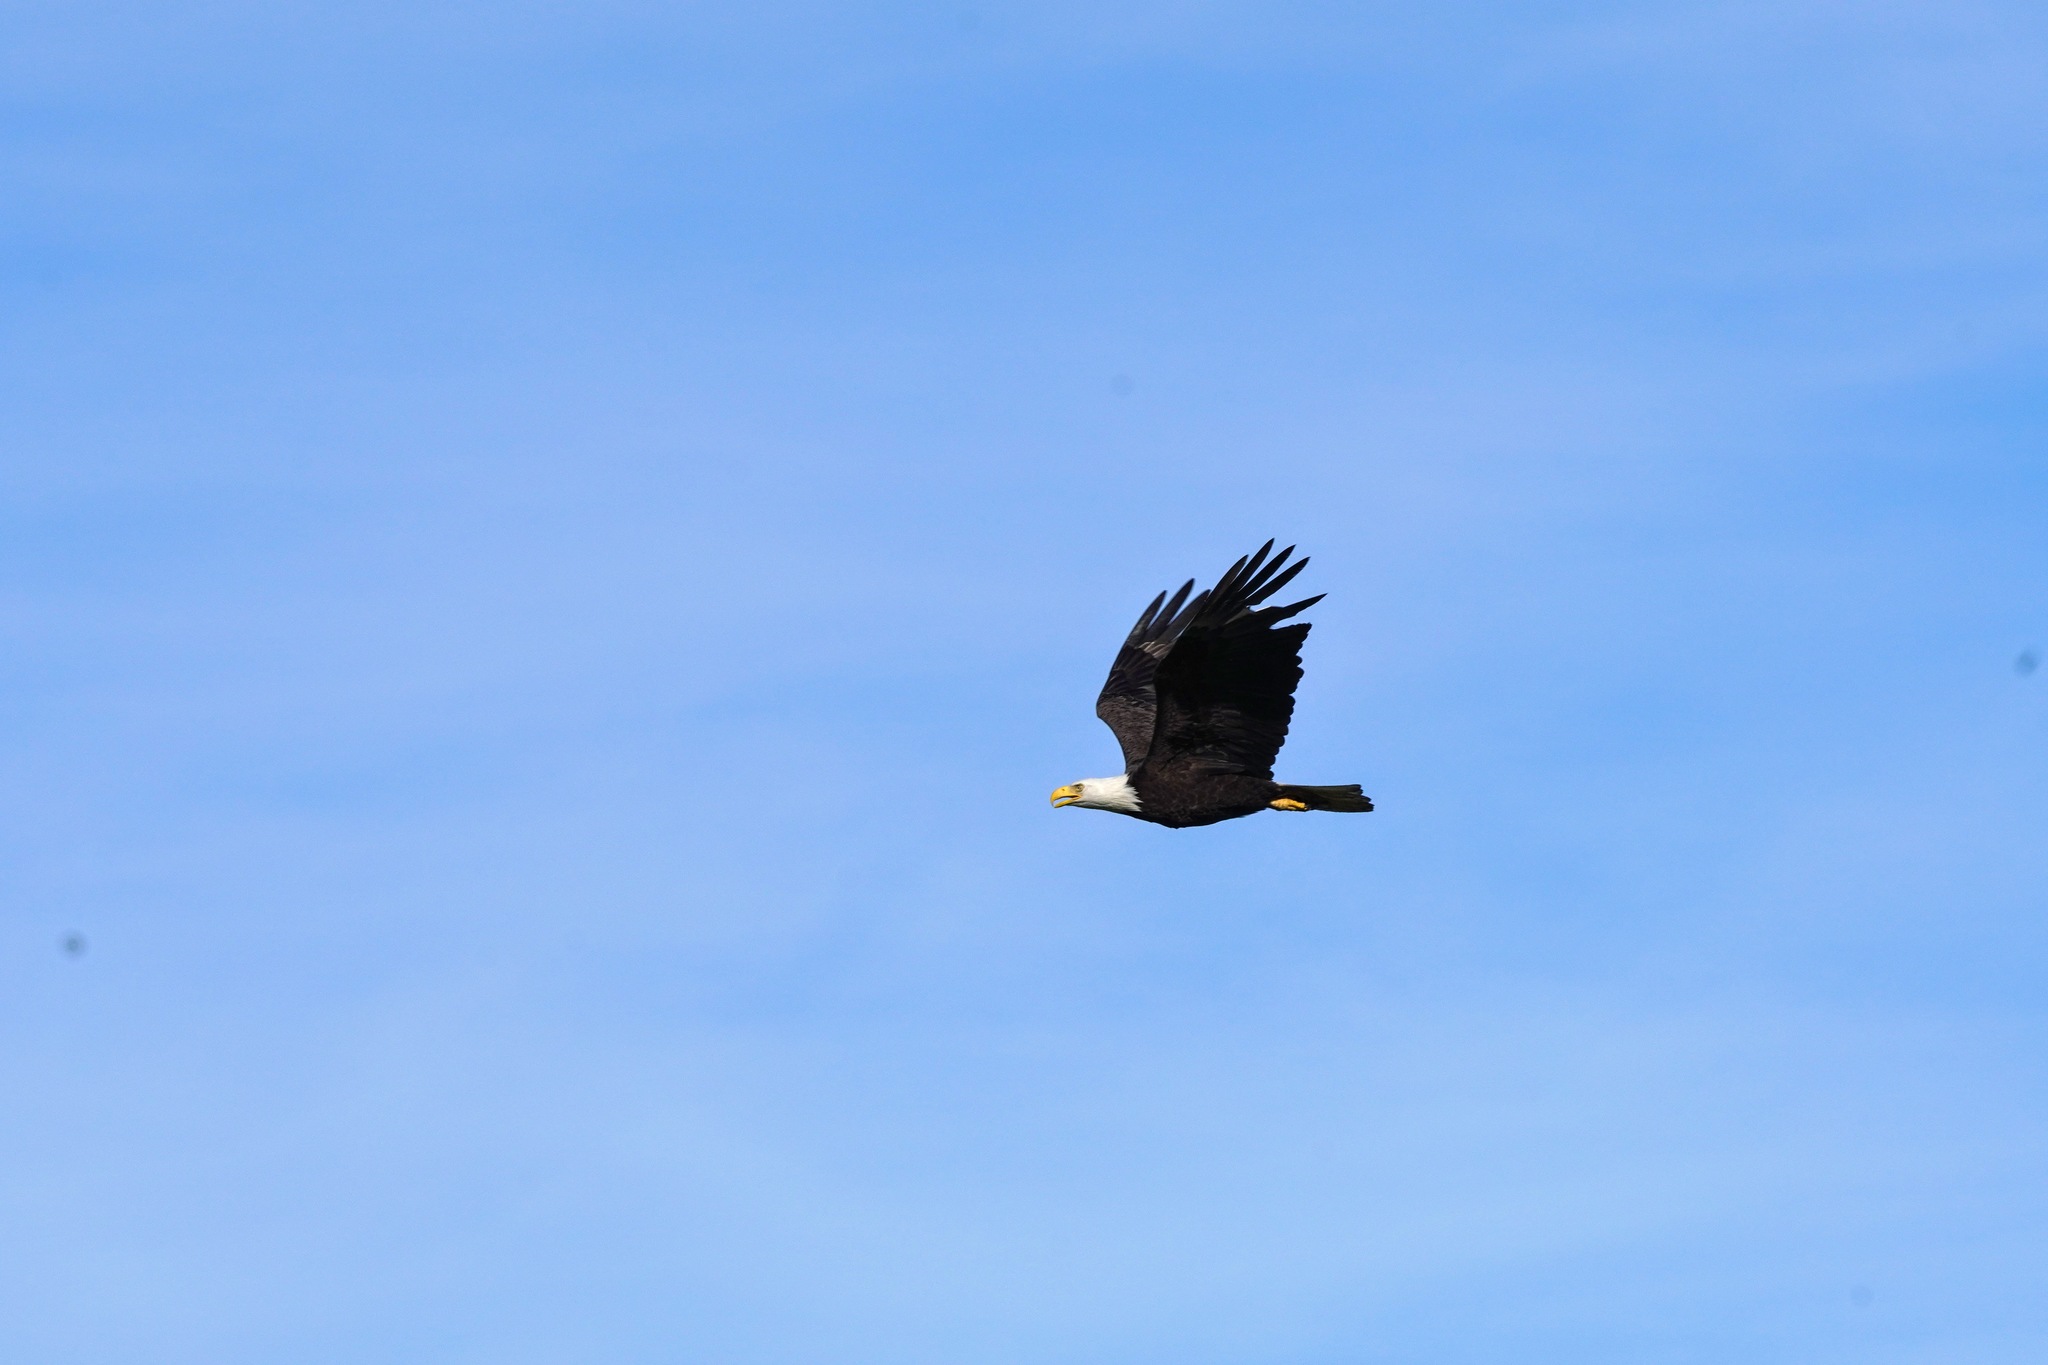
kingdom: Animalia
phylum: Chordata
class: Aves
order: Accipitriformes
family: Accipitridae
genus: Haliaeetus
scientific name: Haliaeetus leucocephalus
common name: Bald eagle
